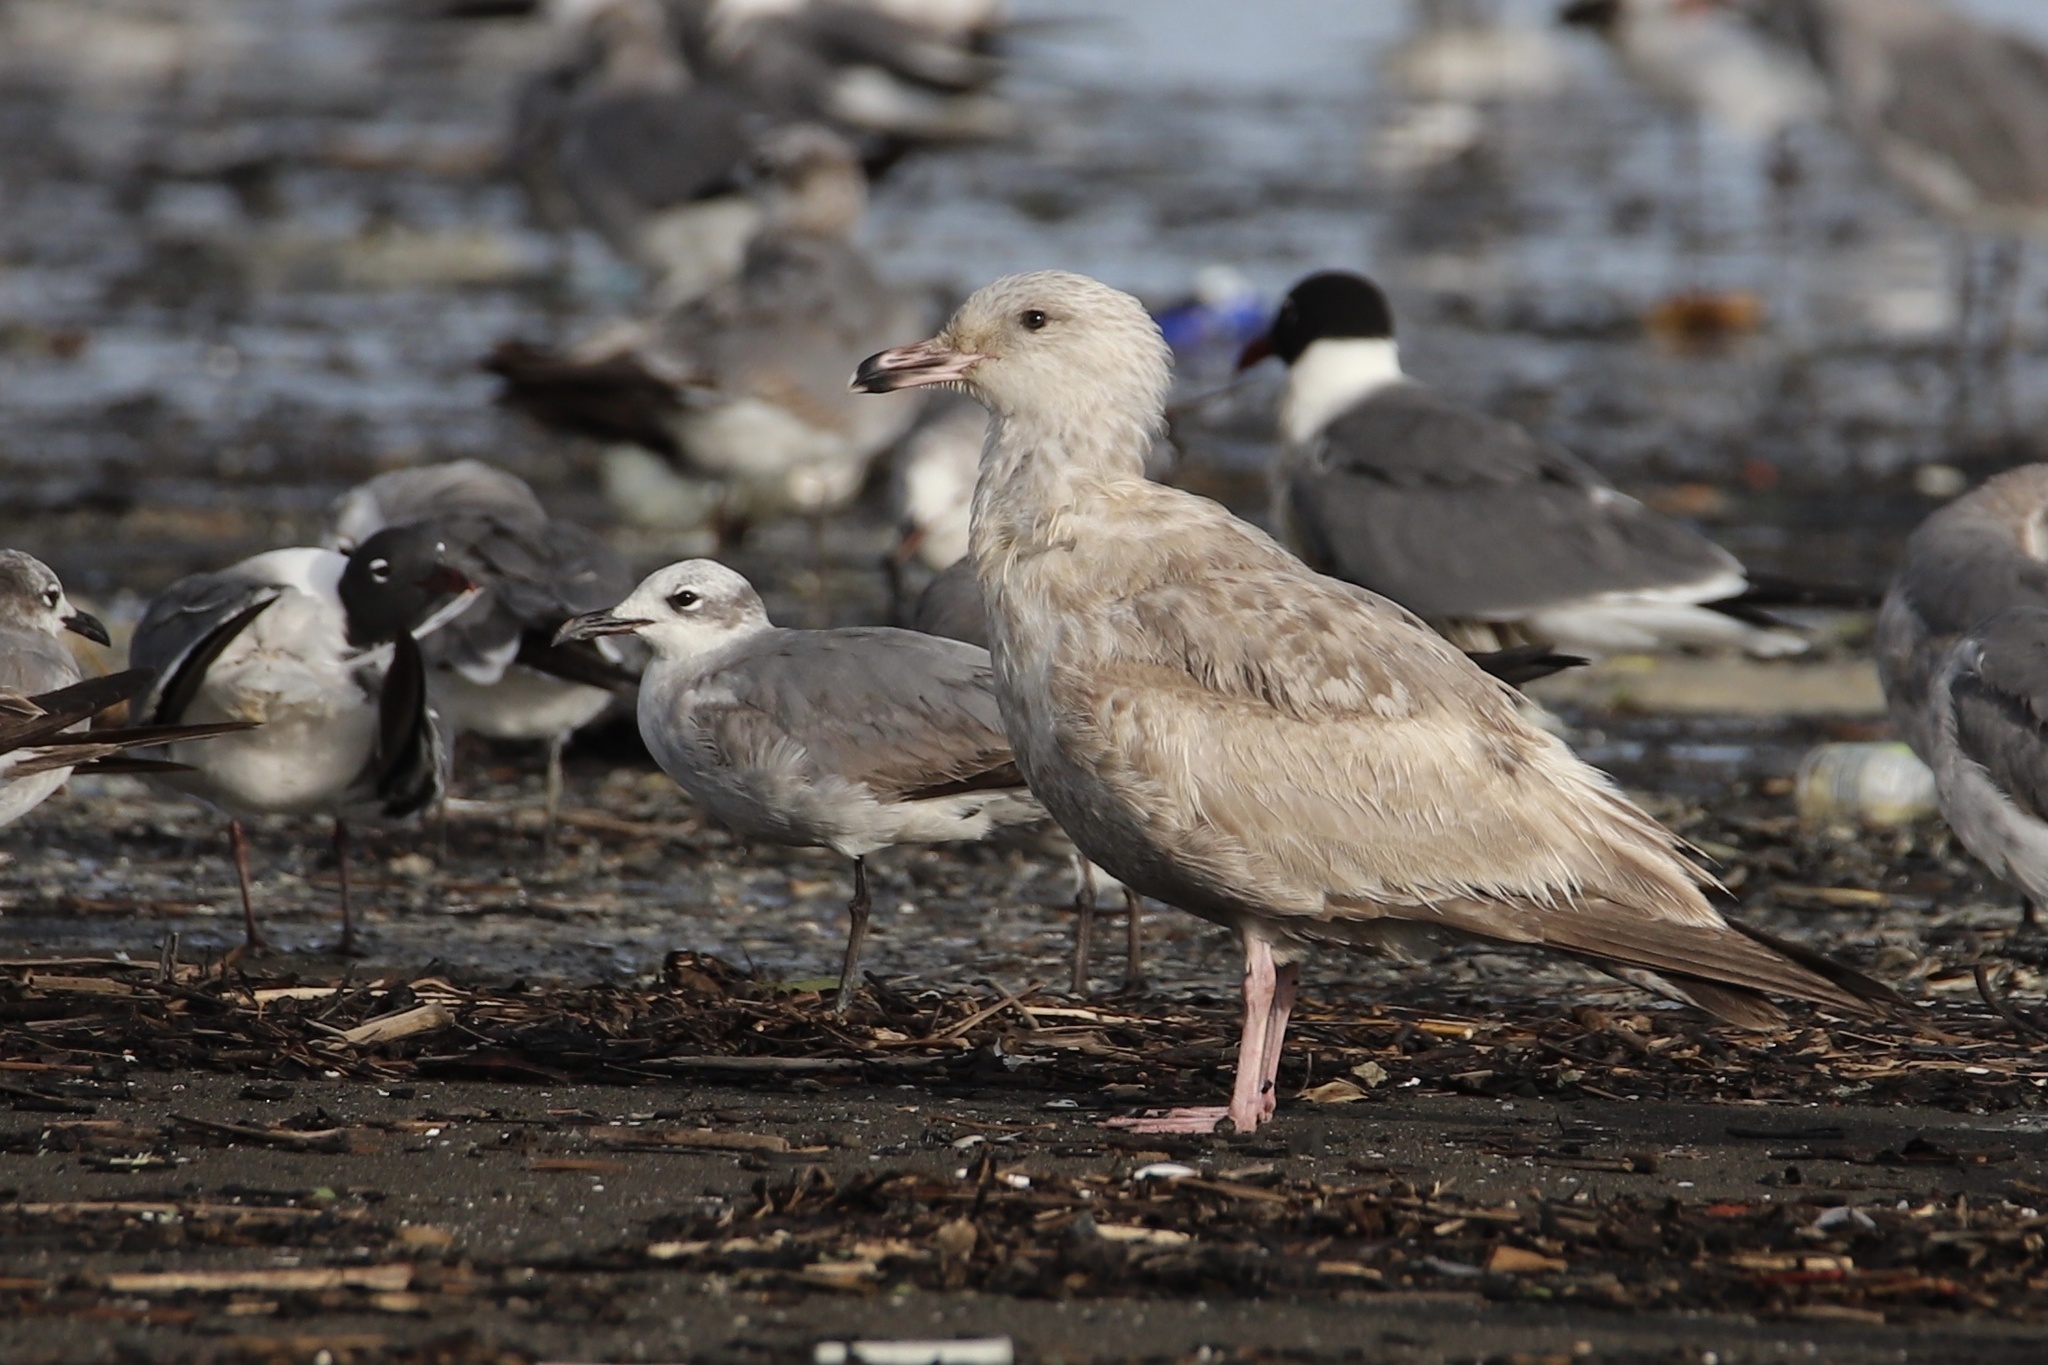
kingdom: Animalia
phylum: Chordata
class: Aves
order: Charadriiformes
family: Laridae
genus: Larus
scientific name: Larus argentatus
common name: Herring gull
